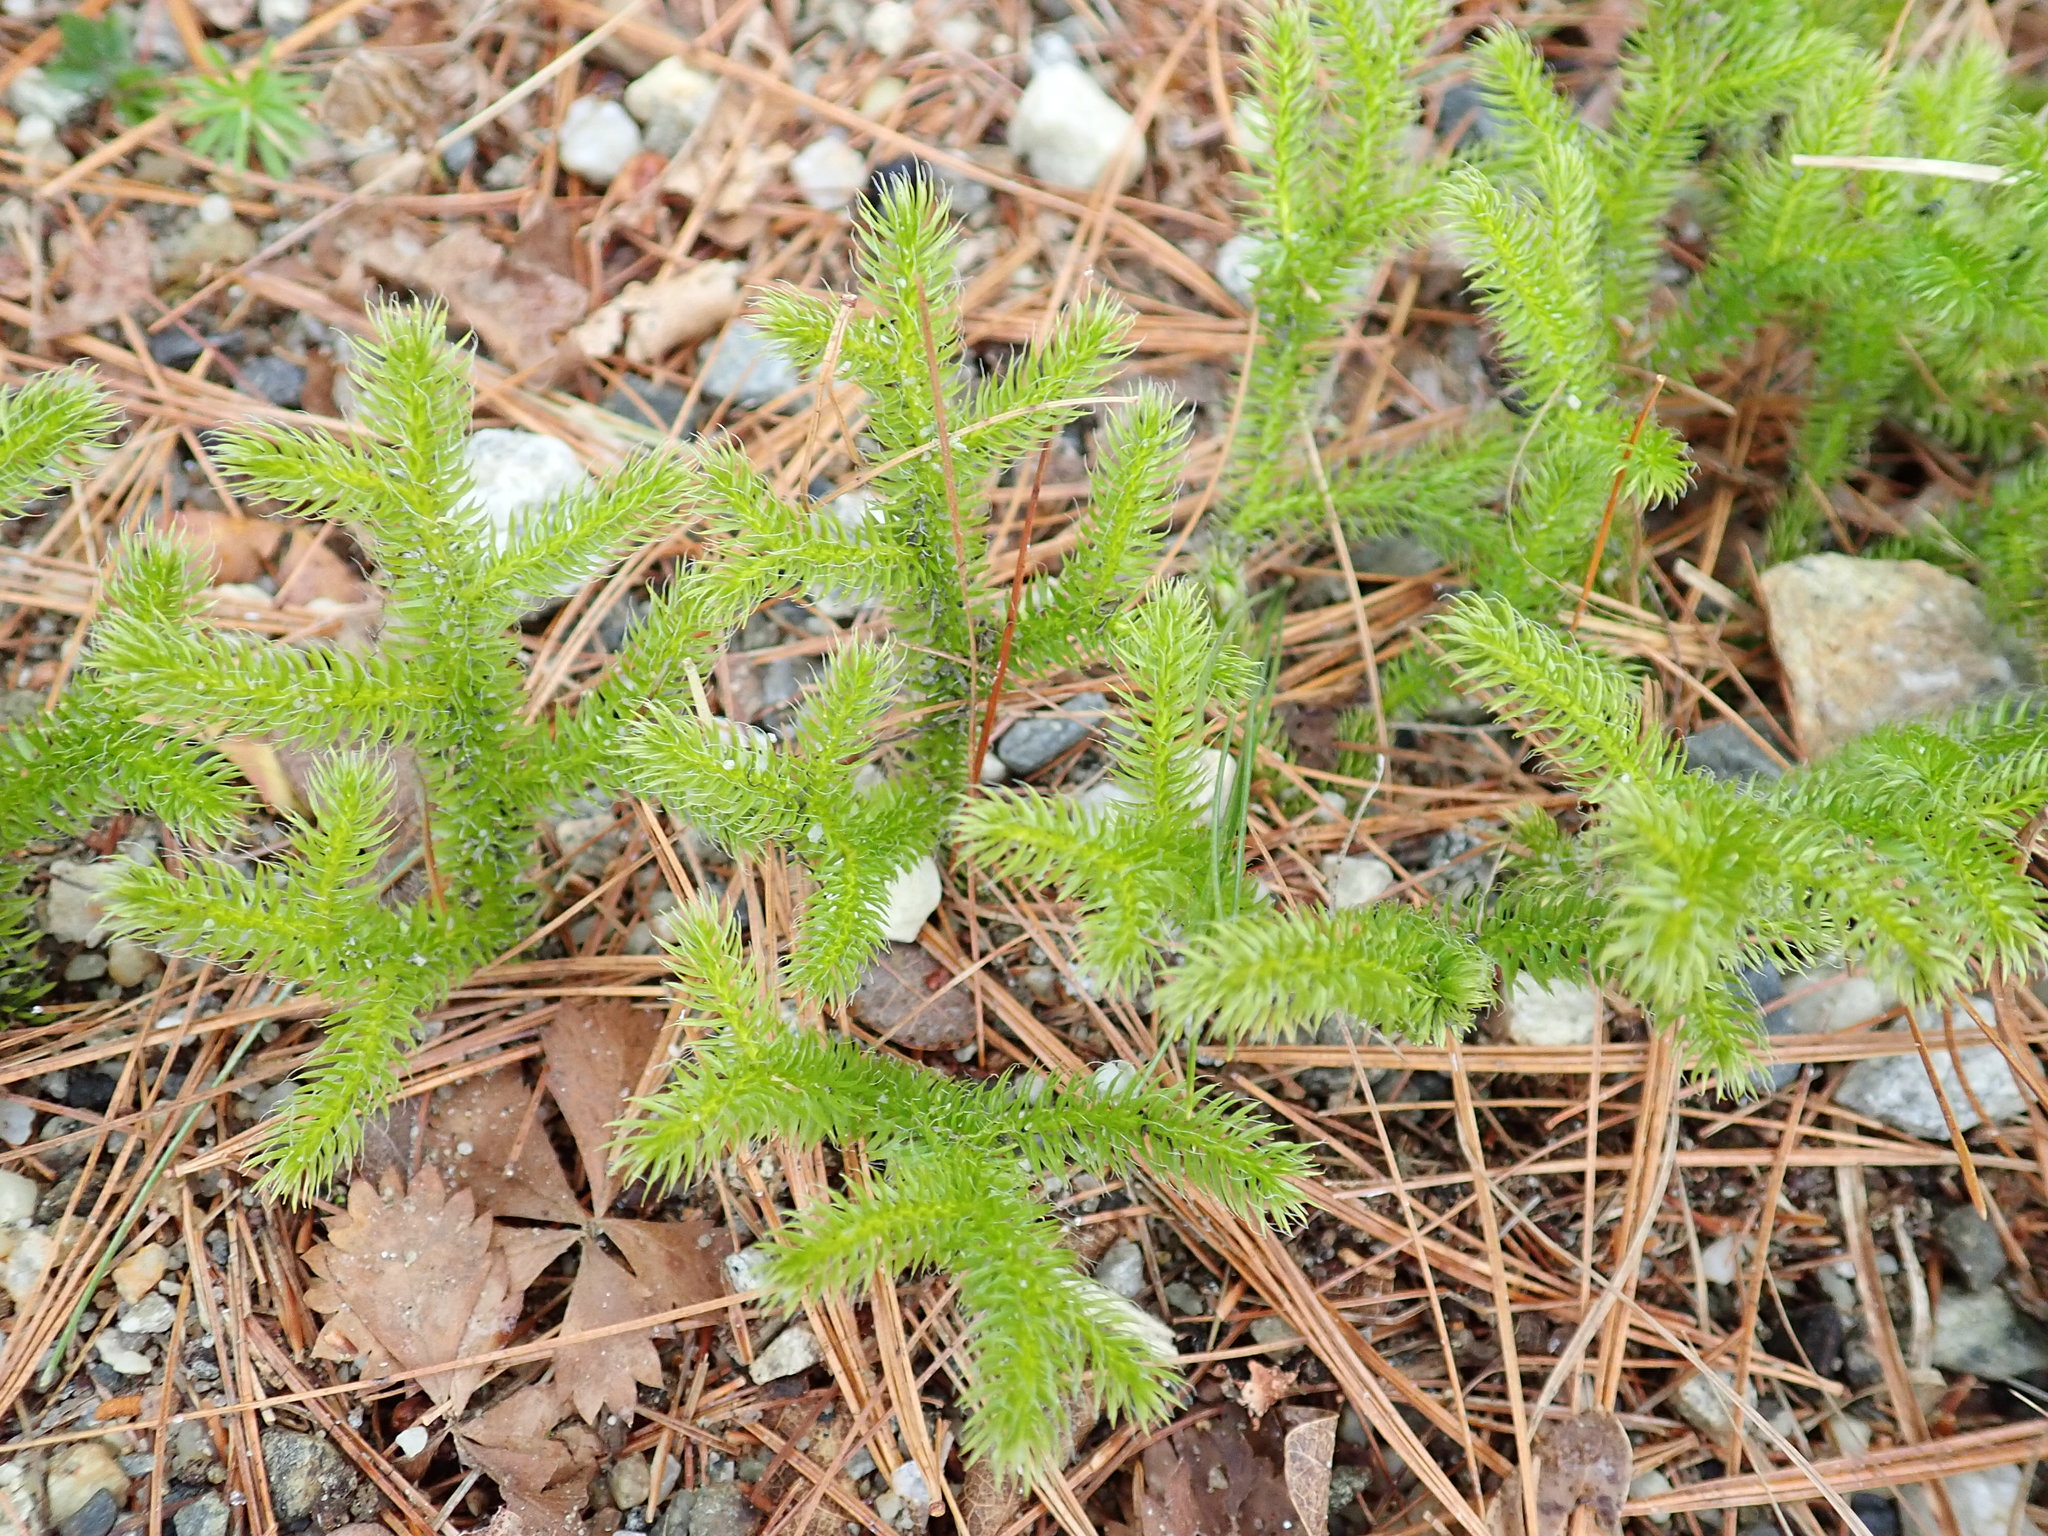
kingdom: Plantae
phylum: Tracheophyta
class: Lycopodiopsida
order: Lycopodiales
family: Lycopodiaceae
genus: Lycopodium
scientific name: Lycopodium clavatum
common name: Stag's-horn clubmoss
